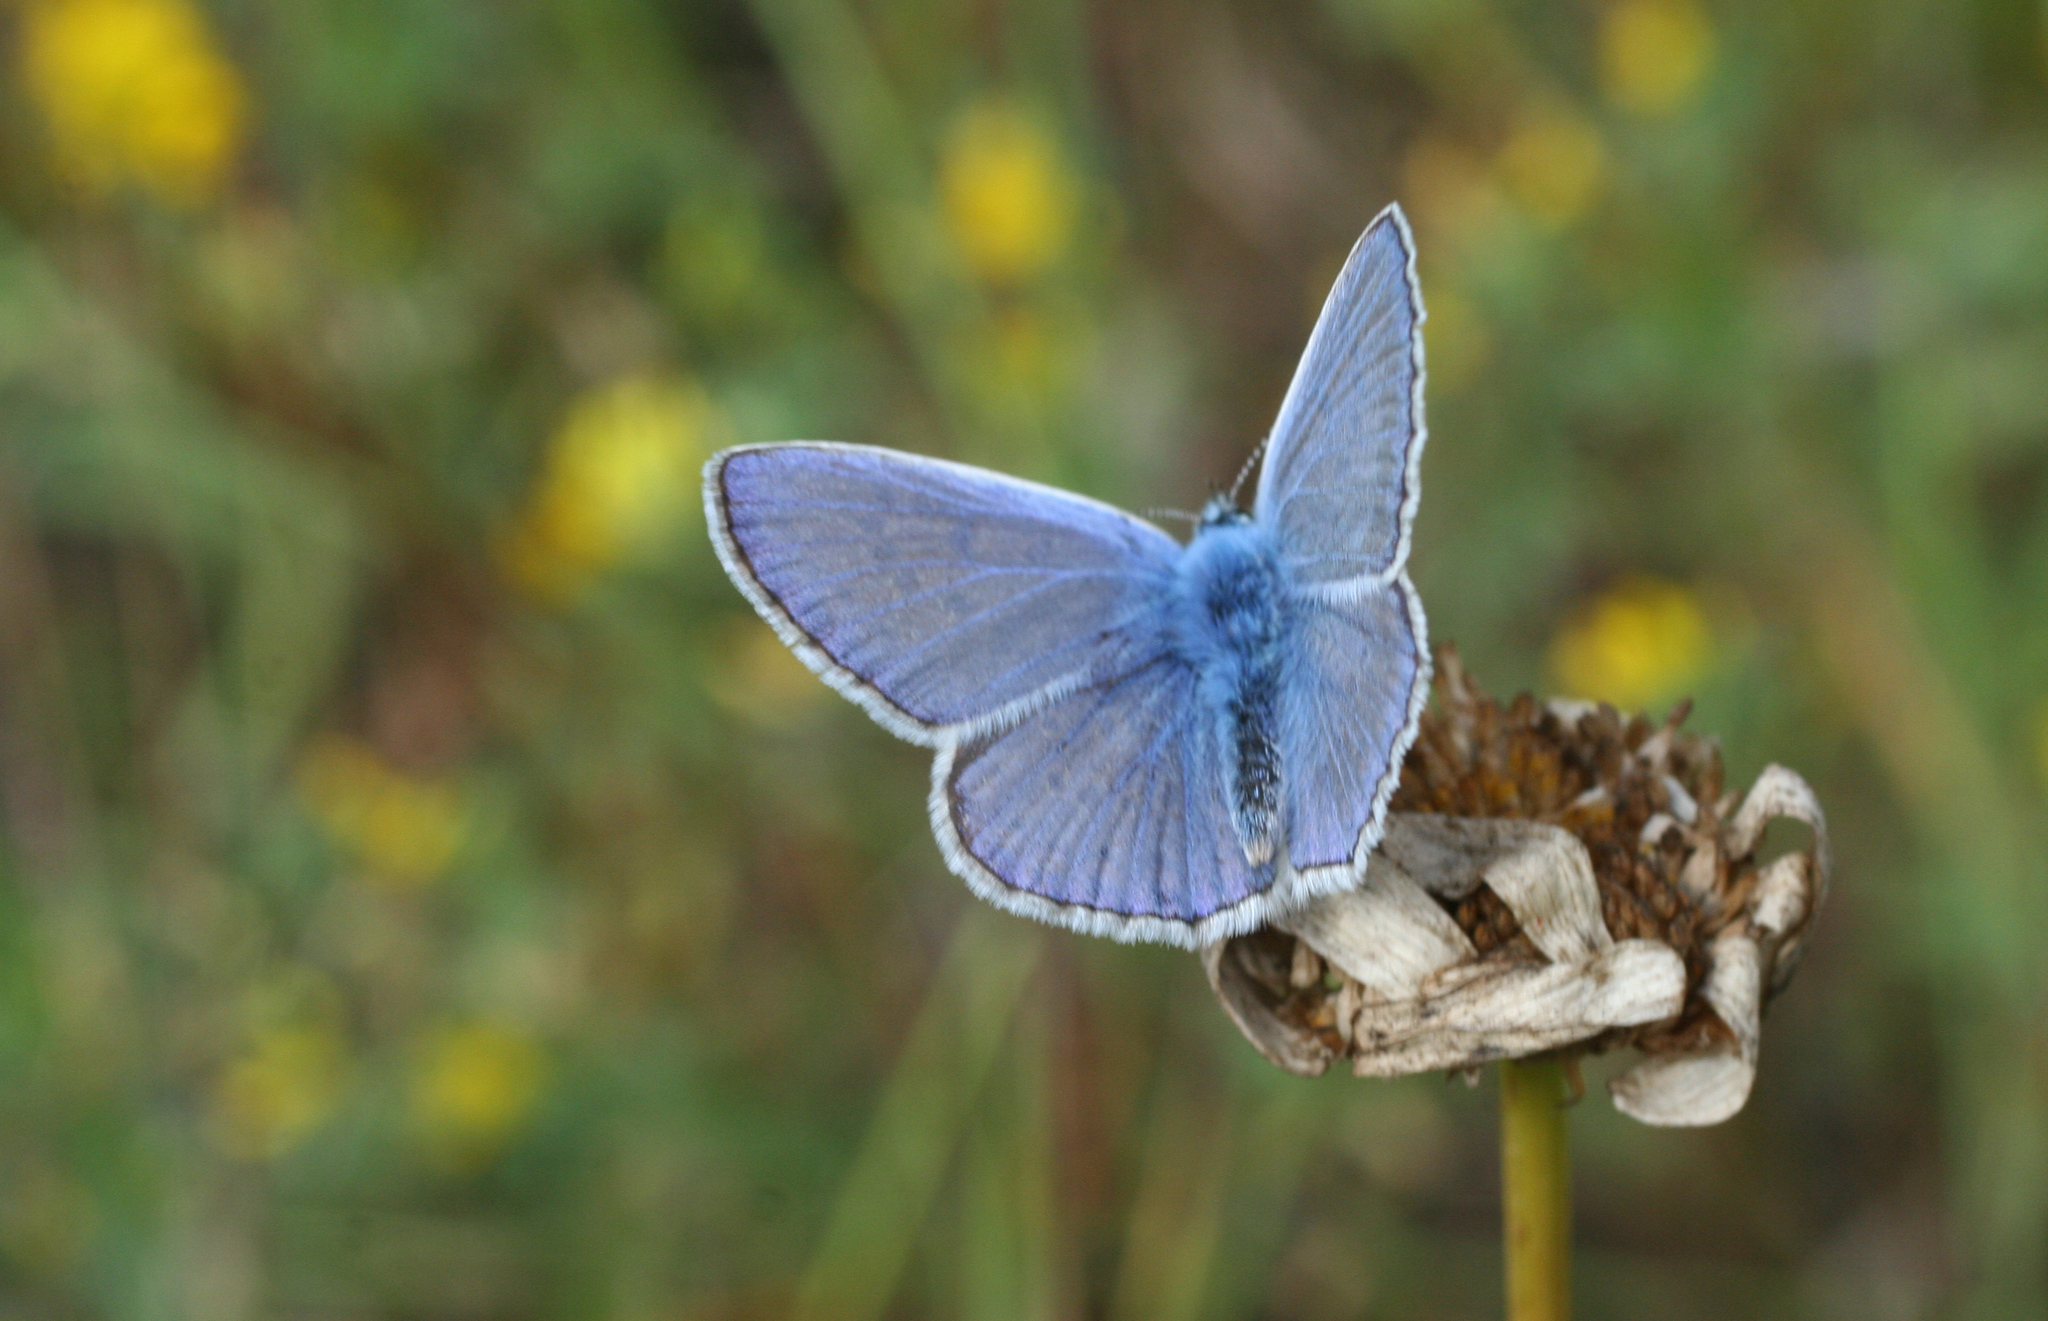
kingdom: Animalia
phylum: Arthropoda
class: Insecta
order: Lepidoptera
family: Lycaenidae
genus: Polyommatus
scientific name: Polyommatus icarus
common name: Common blue
